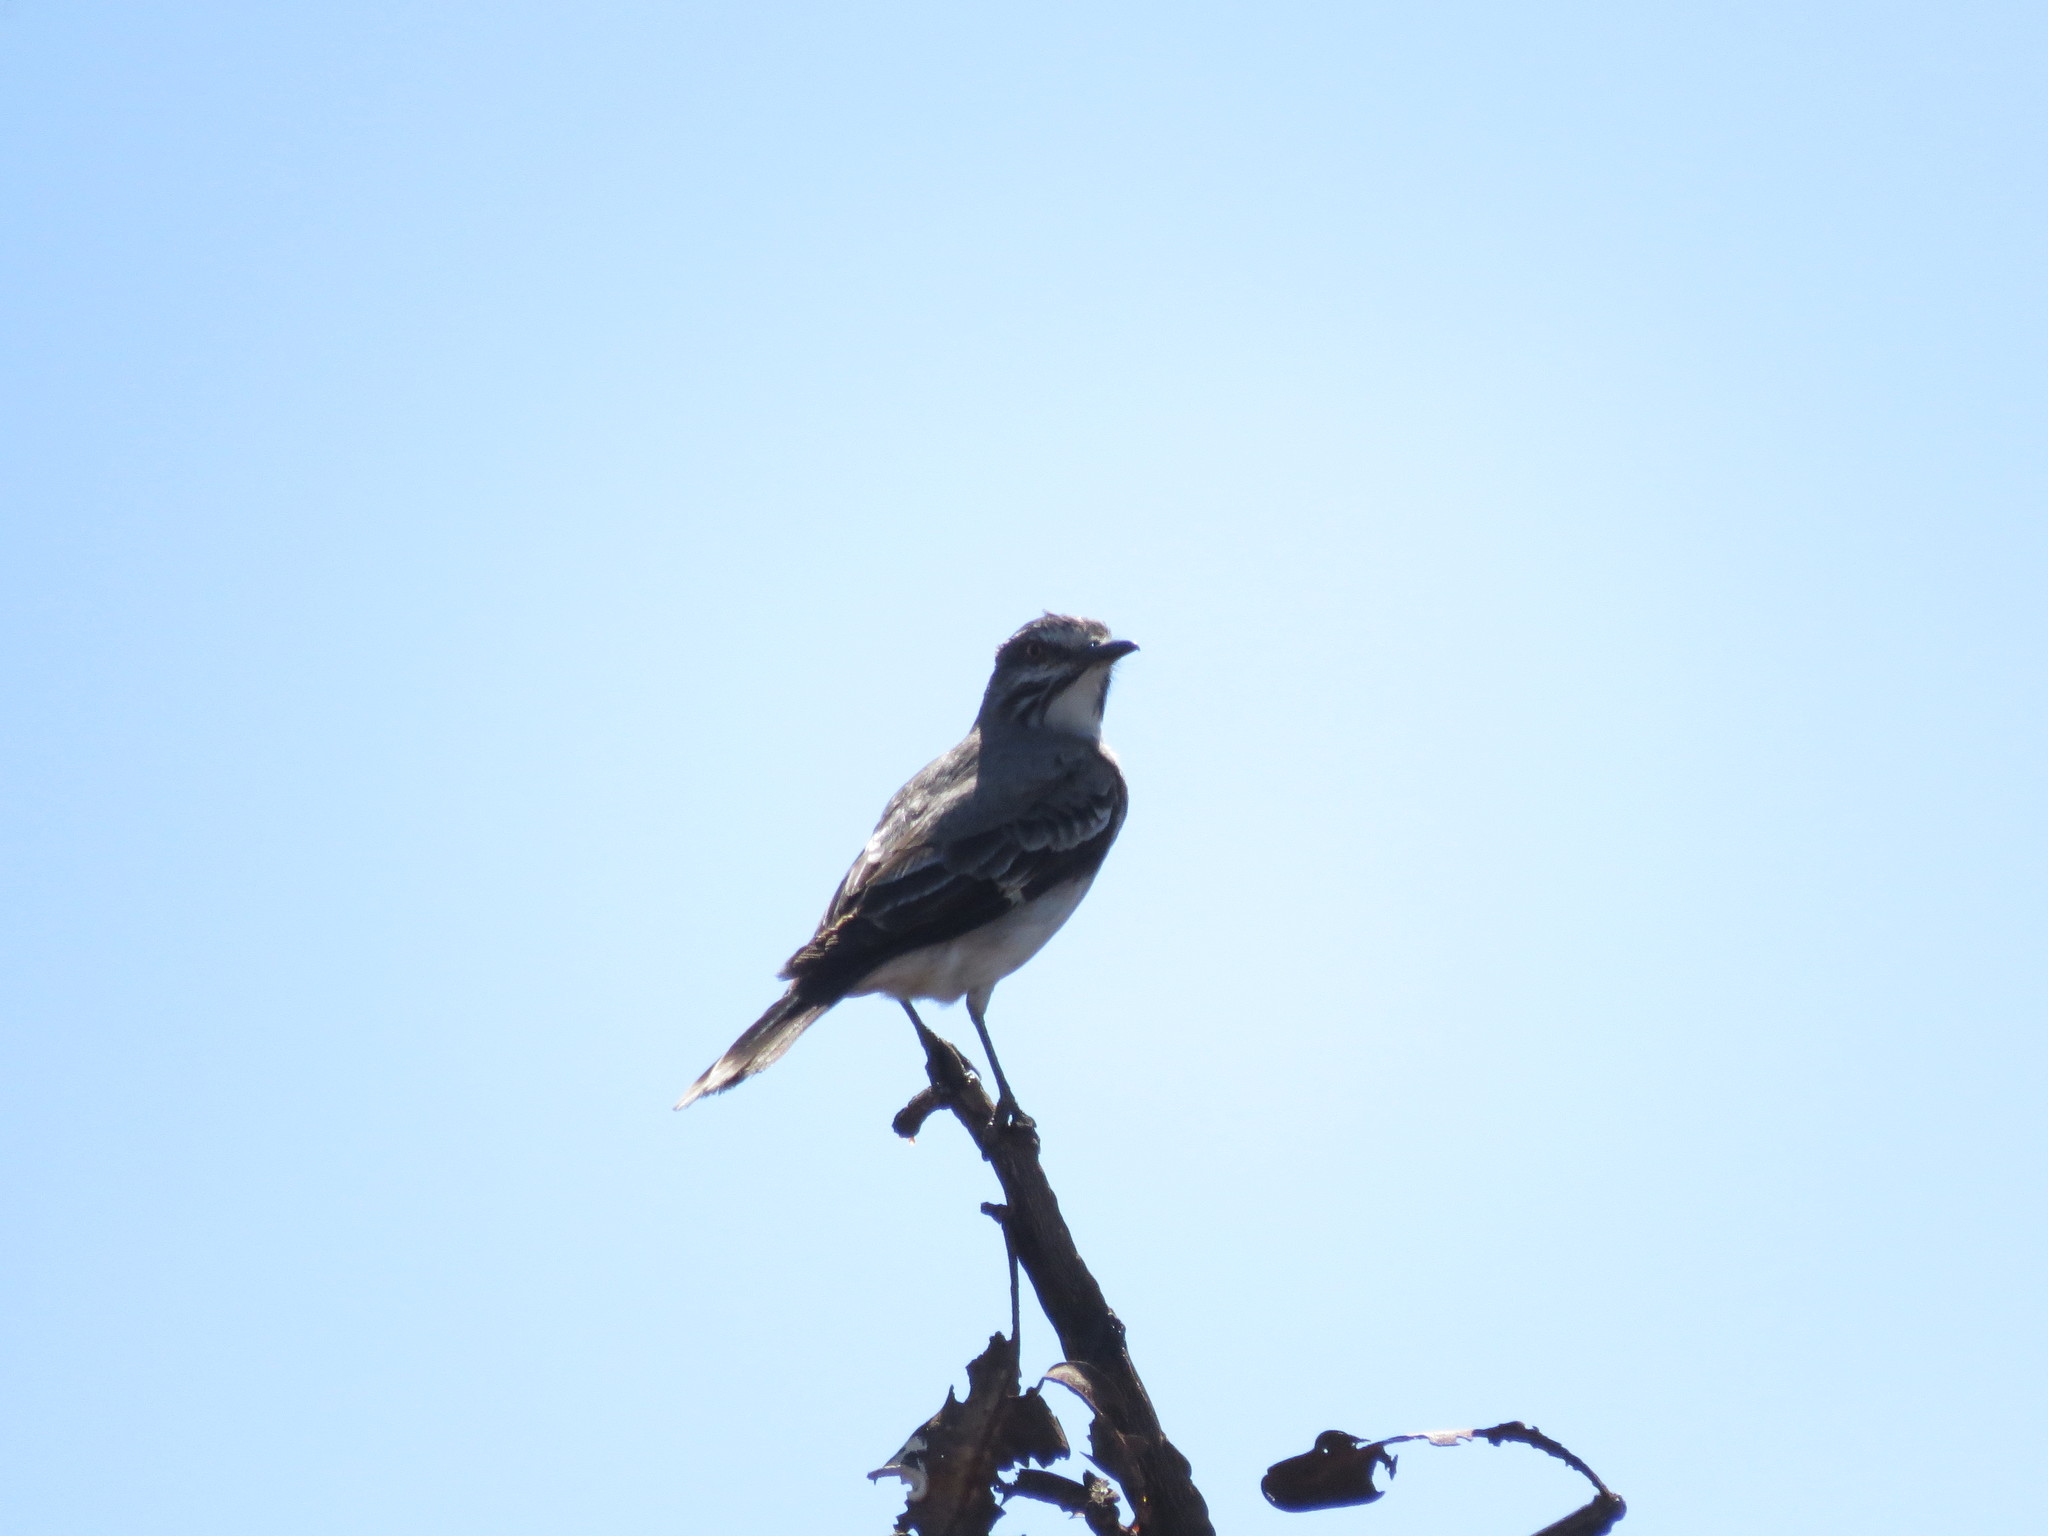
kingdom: Animalia
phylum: Chordata
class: Aves
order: Passeriformes
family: Tyrannidae
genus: Xolmis
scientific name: Xolmis cinereus
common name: Grey monjita
